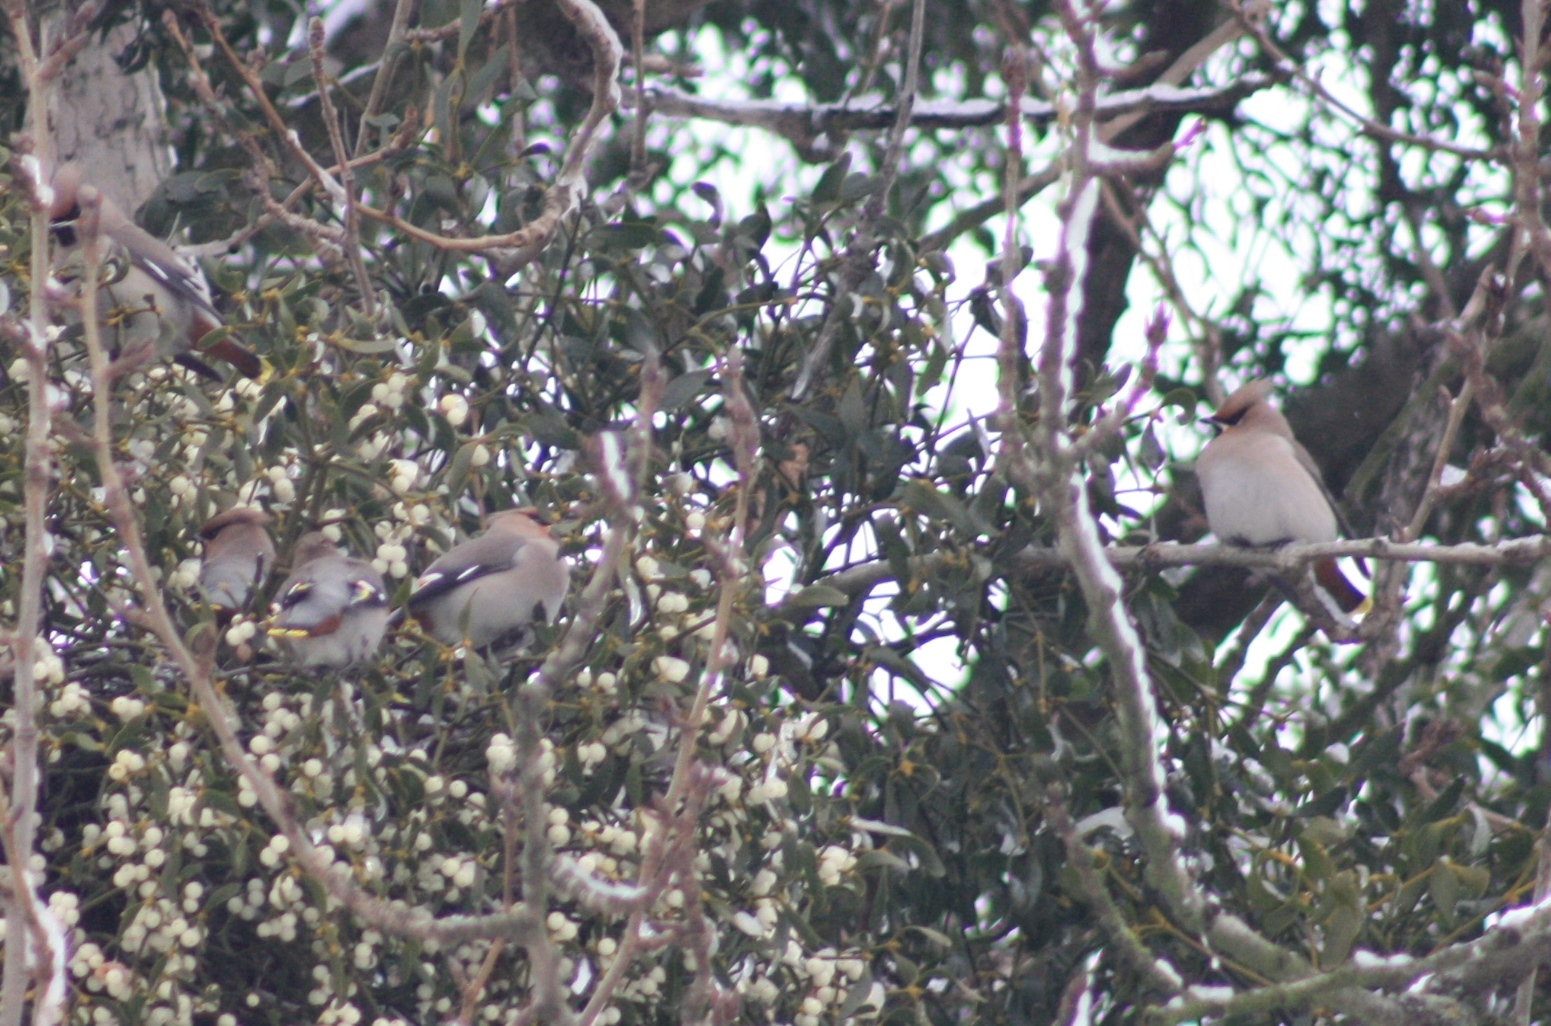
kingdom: Animalia
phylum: Chordata
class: Aves
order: Passeriformes
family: Bombycillidae
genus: Bombycilla
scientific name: Bombycilla garrulus
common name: Bohemian waxwing
